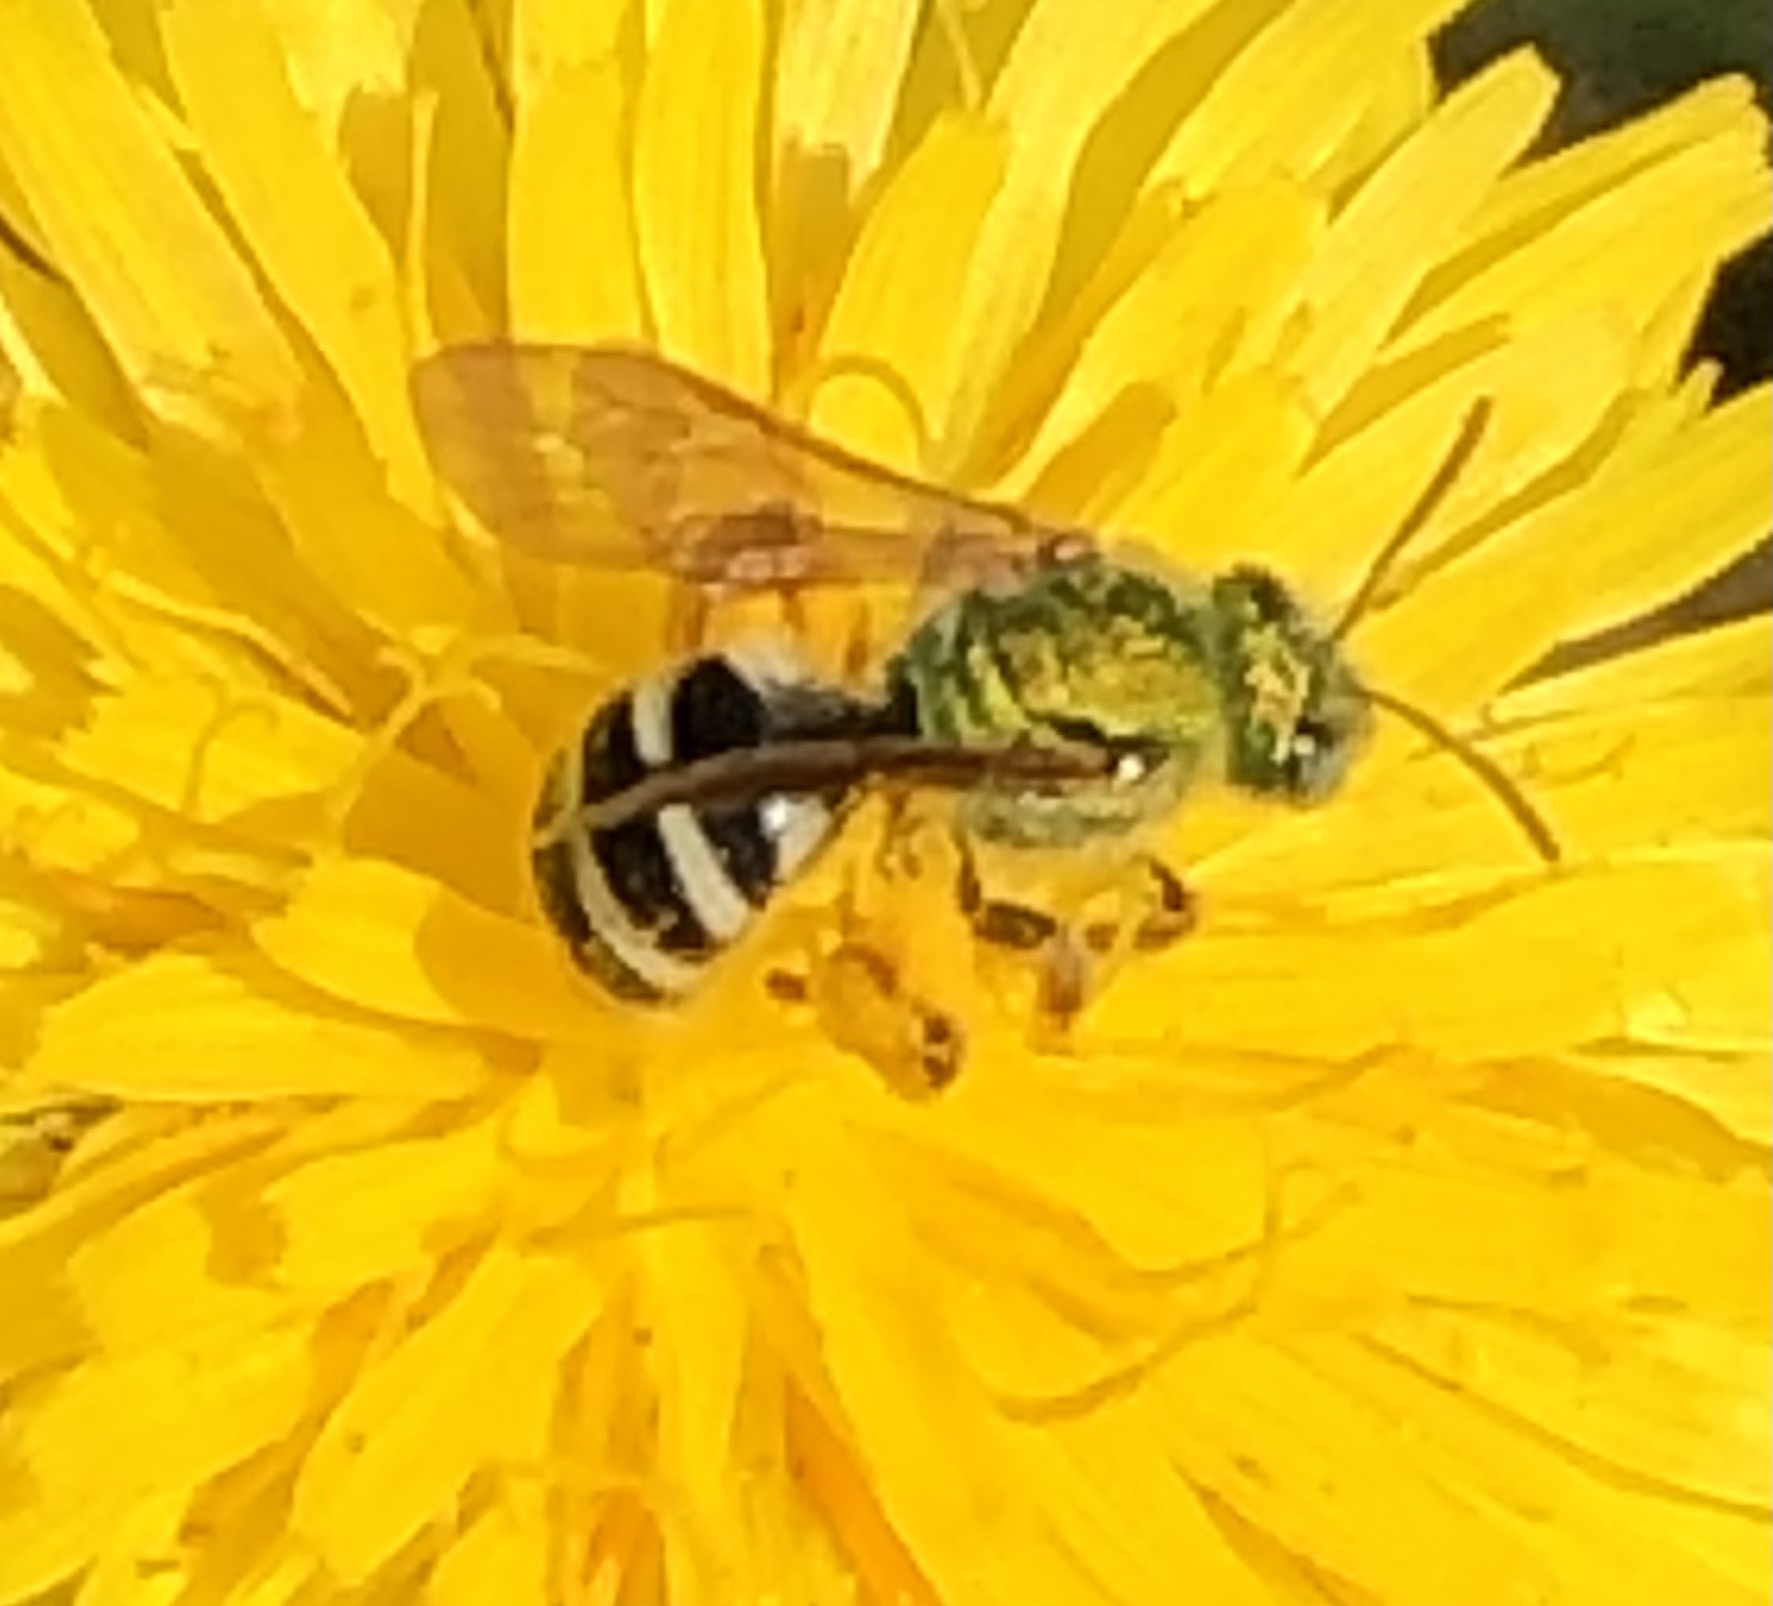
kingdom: Animalia
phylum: Arthropoda
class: Insecta
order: Hymenoptera
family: Halictidae
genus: Agapostemon
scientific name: Agapostemon virescens
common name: Bicolored striped sweat bee
